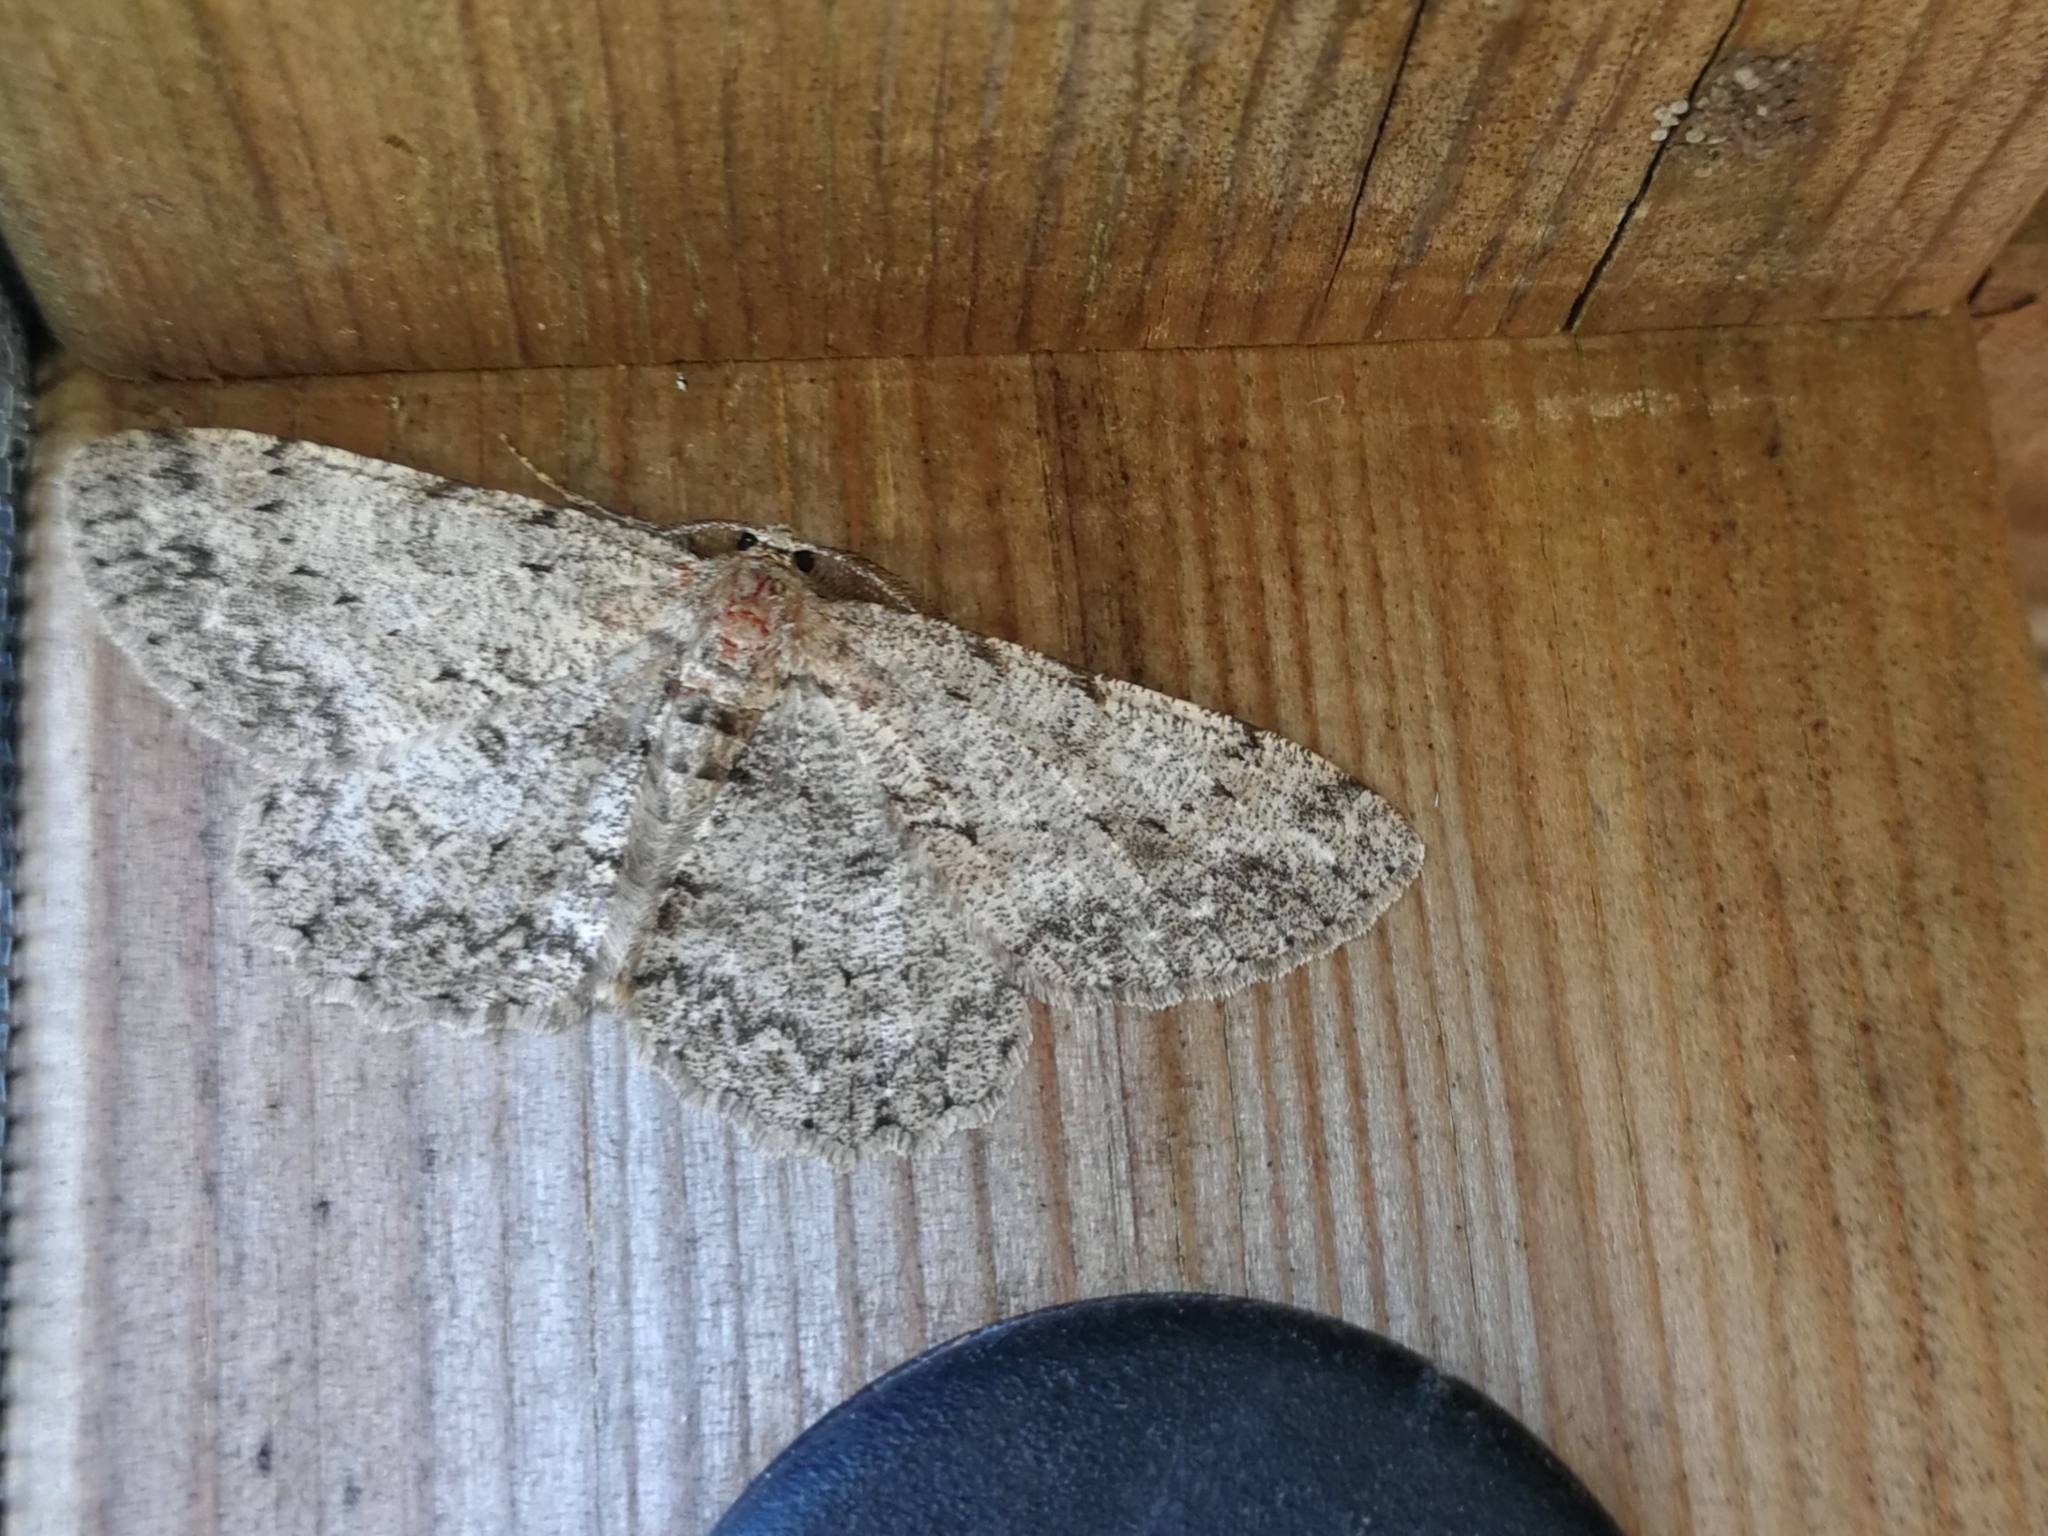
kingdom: Animalia
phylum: Arthropoda
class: Insecta
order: Lepidoptera
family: Geometridae
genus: Hypomecis
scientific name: Hypomecis punctinalis
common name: Pale oak beauty
